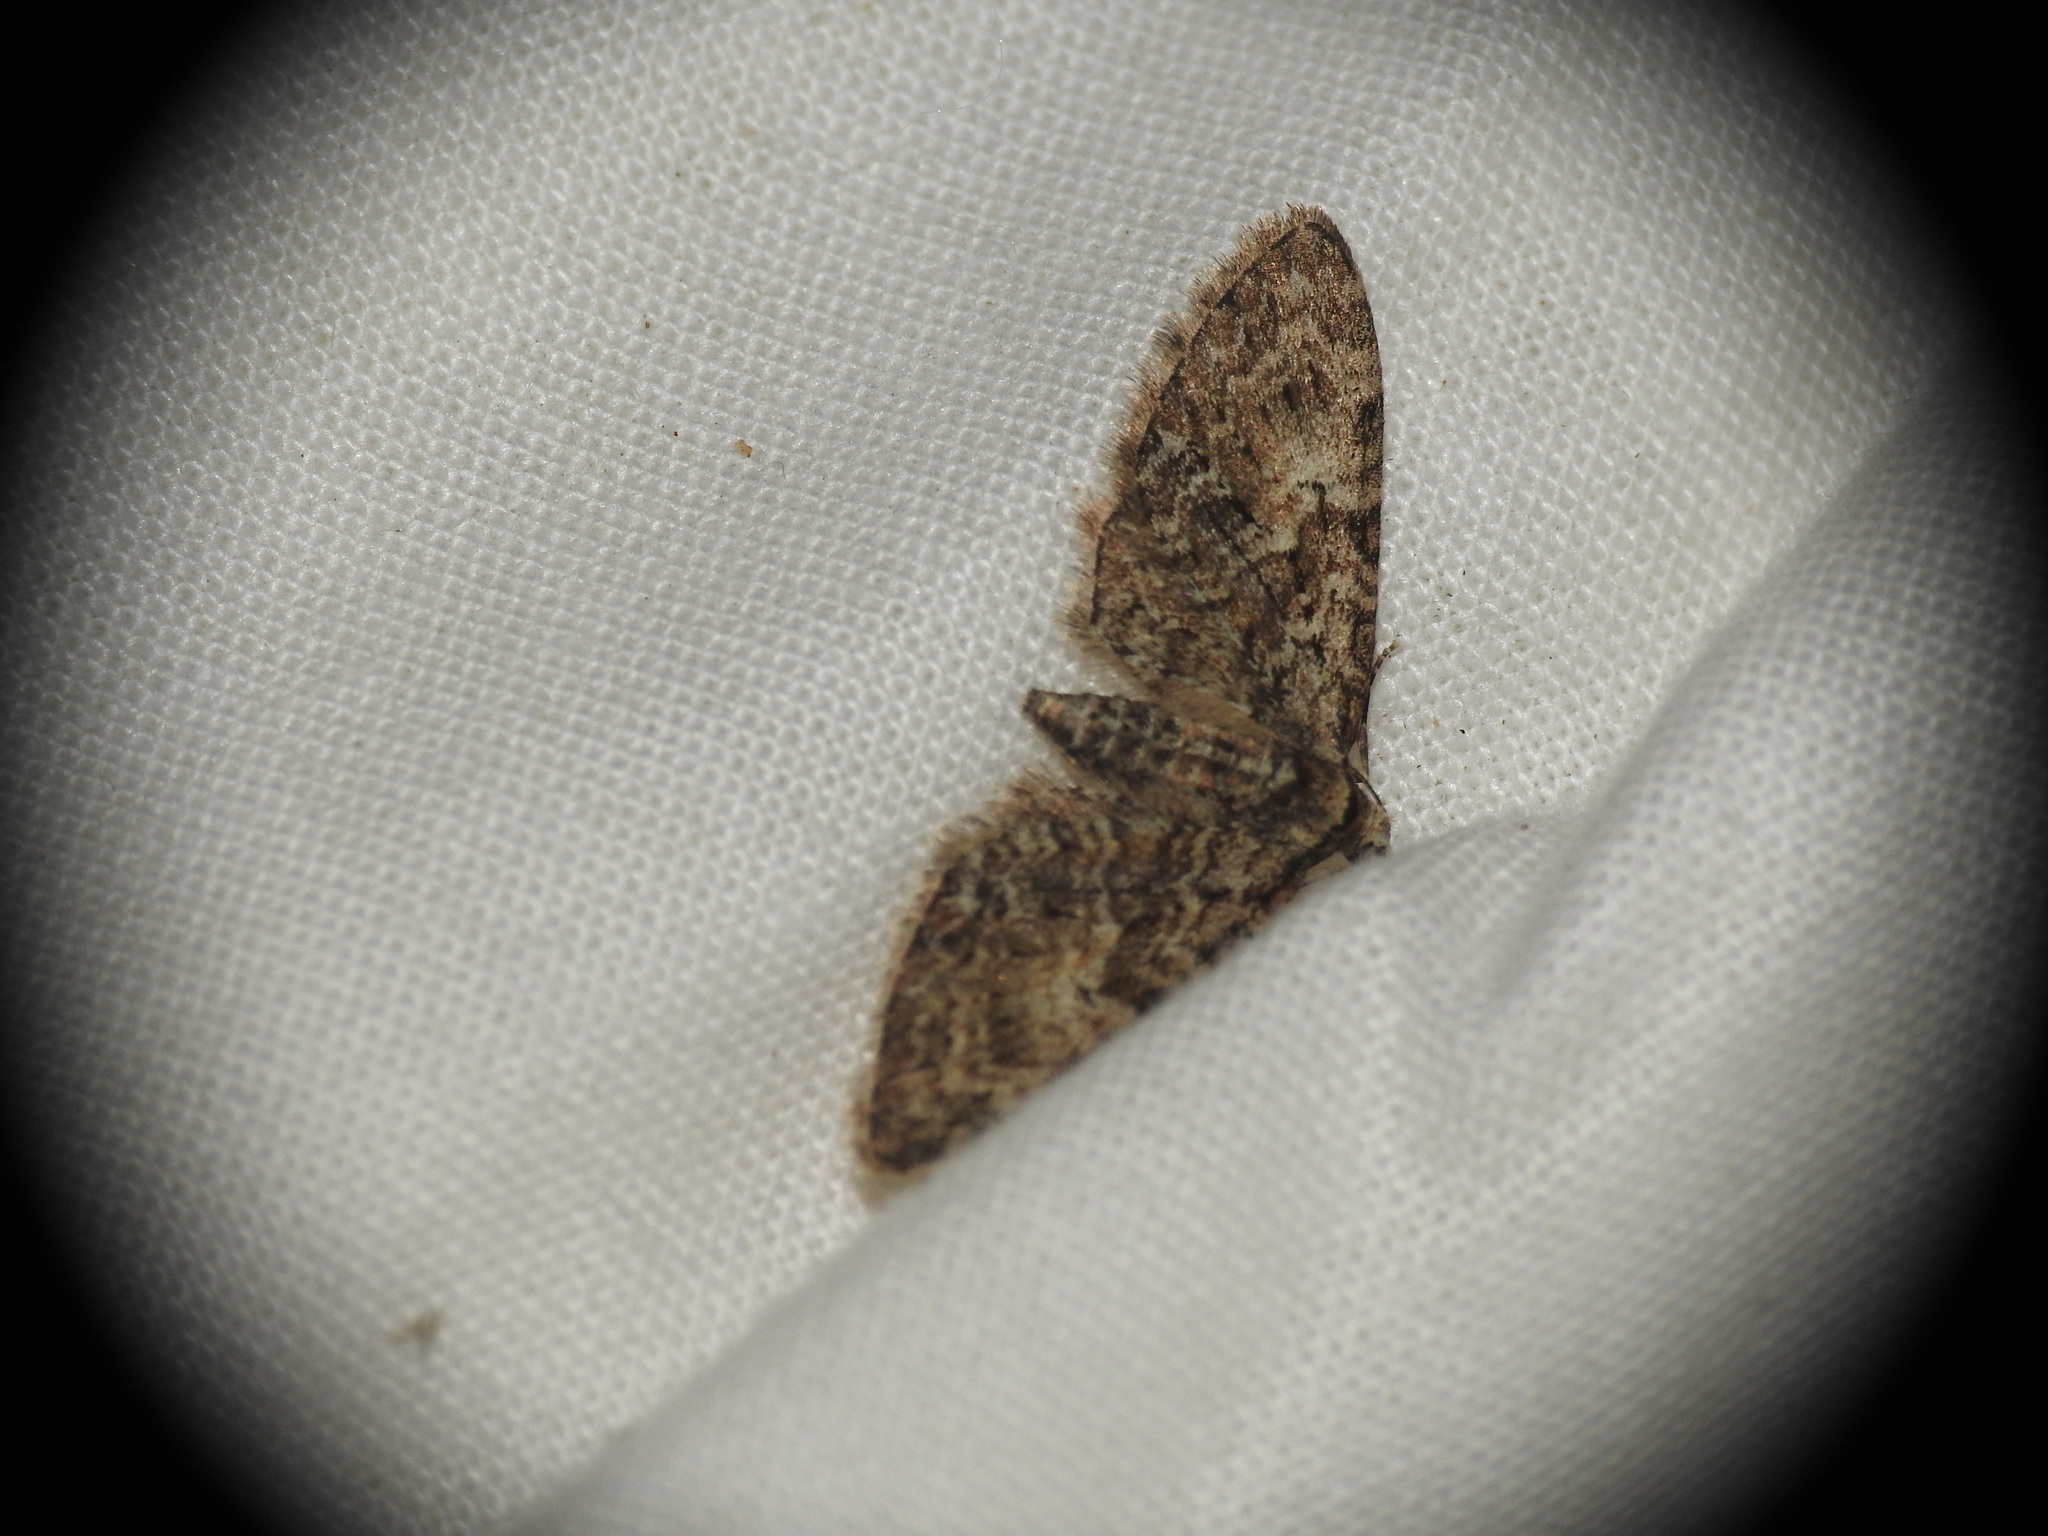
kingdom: Animalia
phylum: Arthropoda
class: Insecta
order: Lepidoptera
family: Geometridae
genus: Eupithecia
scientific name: Eupithecia cocciferata
